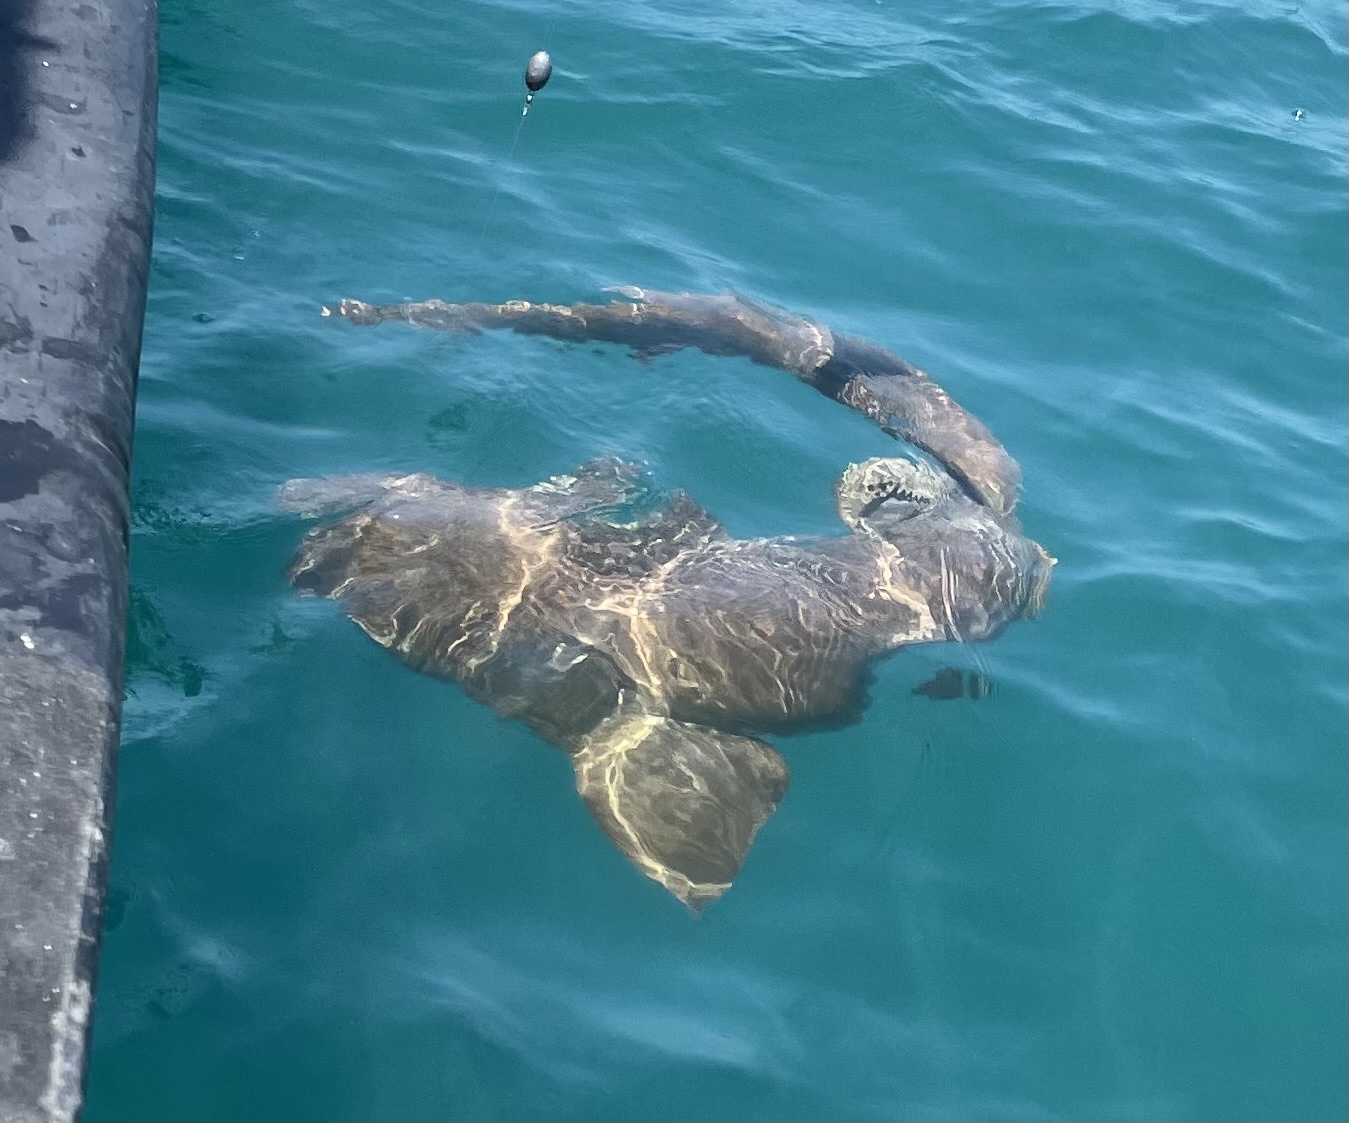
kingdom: Animalia
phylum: Chordata
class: Elasmobranchii
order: Orectolobiformes
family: Ginglymostomatidae
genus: Ginglymostoma
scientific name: Ginglymostoma cirratum
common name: Nurse shark
